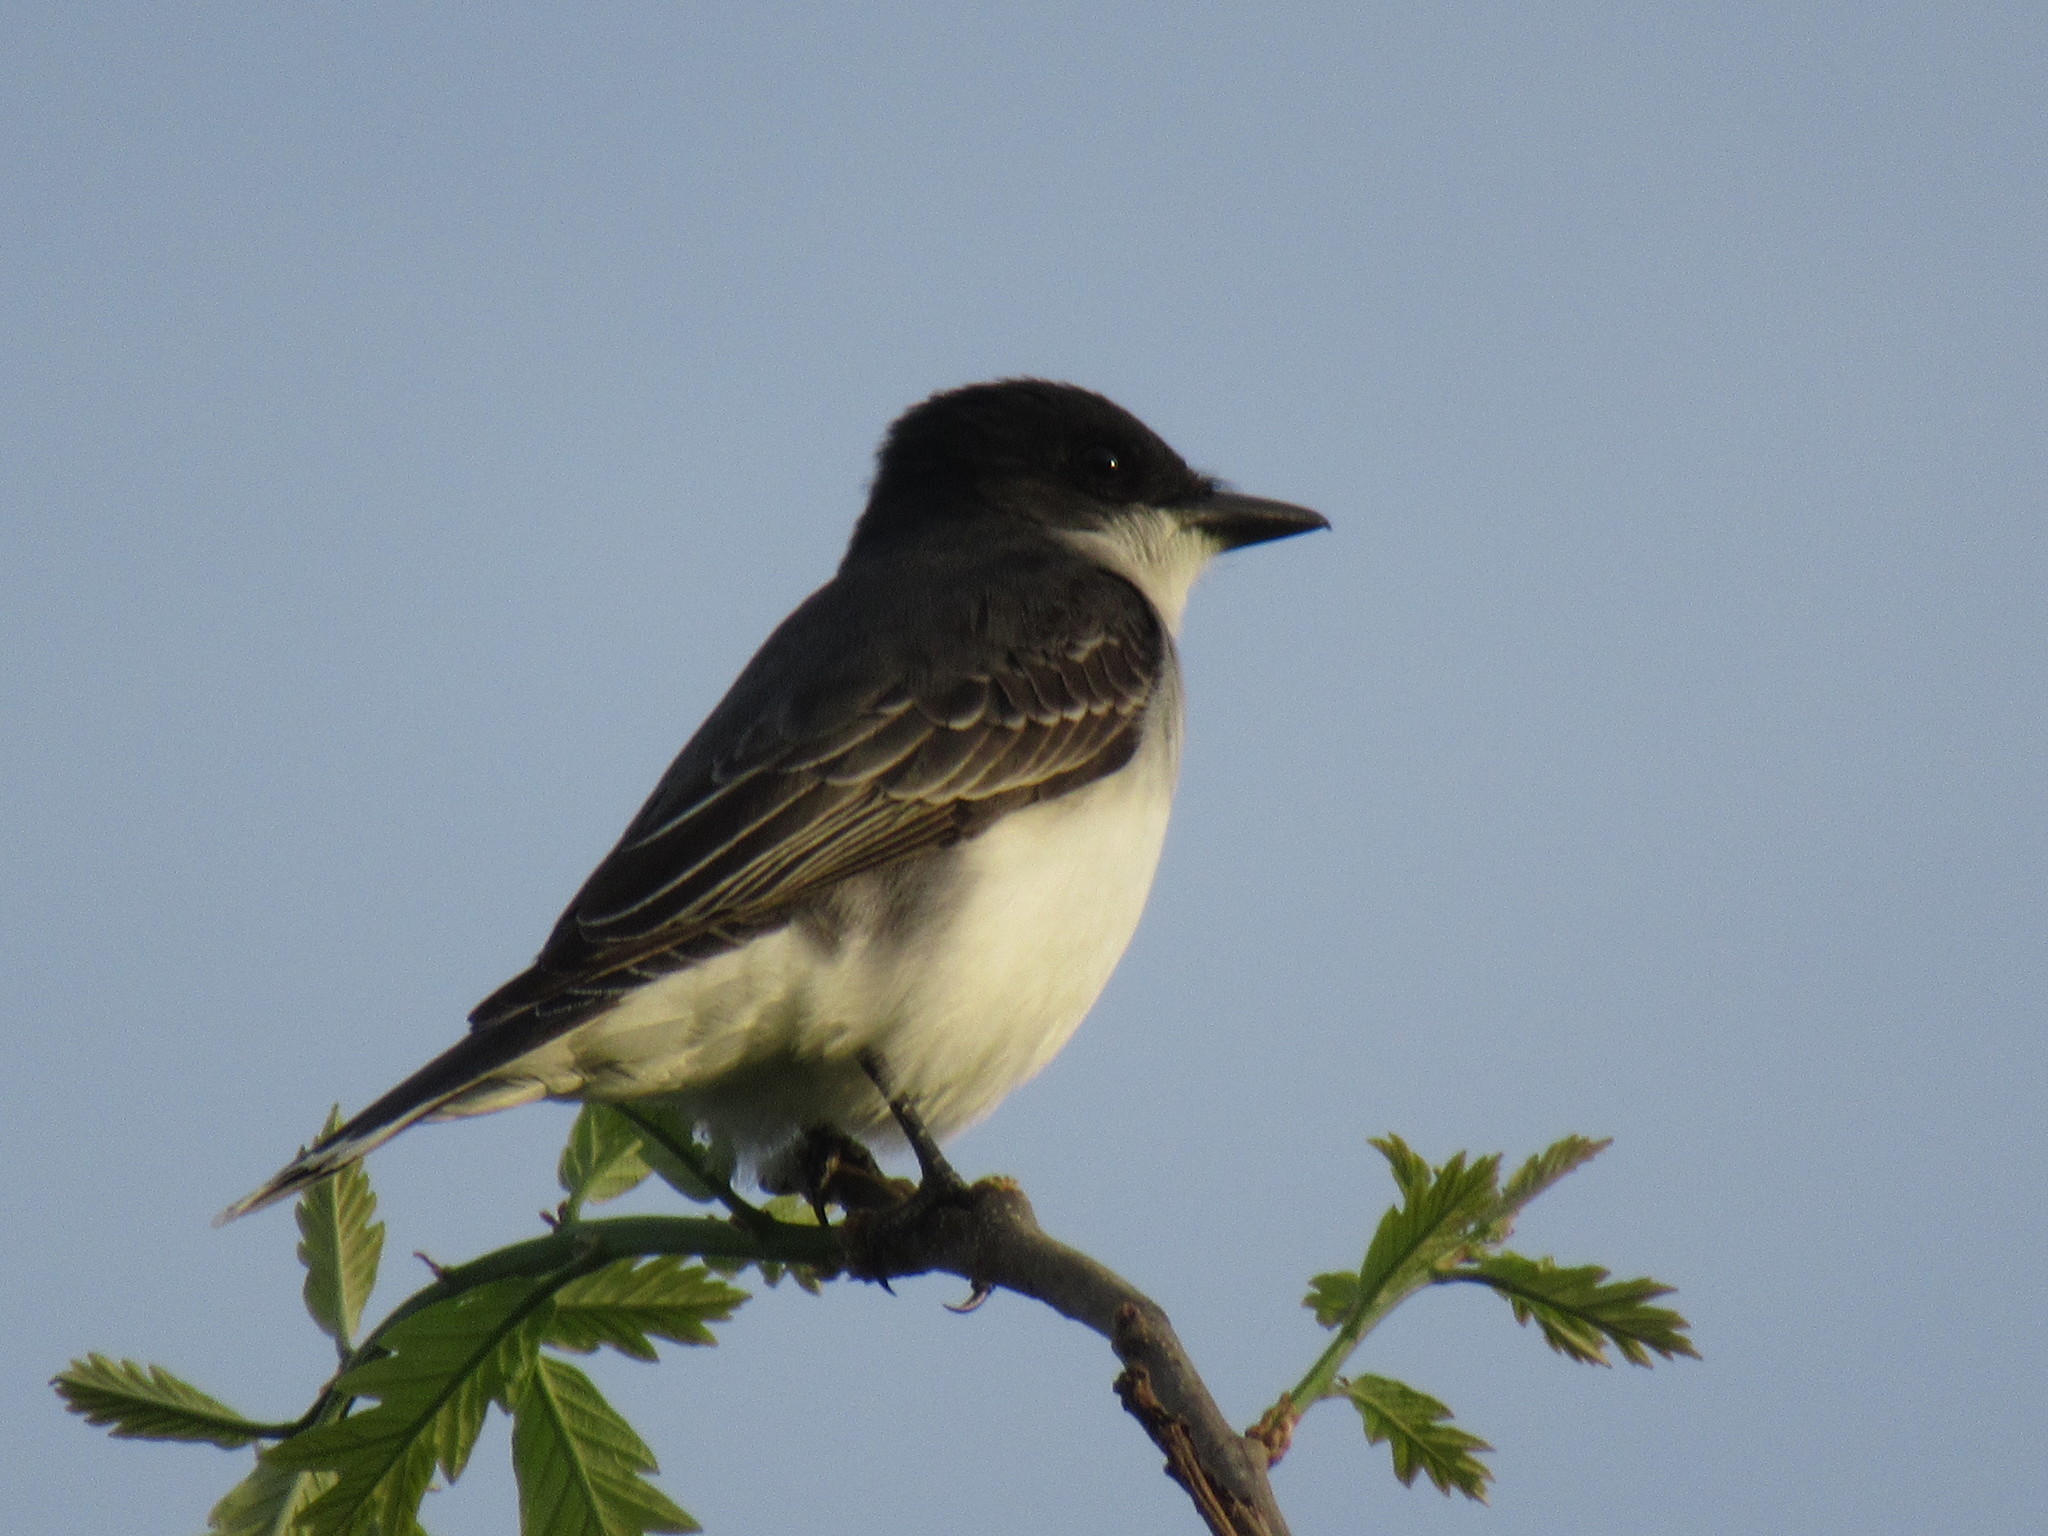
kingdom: Animalia
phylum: Chordata
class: Aves
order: Passeriformes
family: Tyrannidae
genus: Tyrannus
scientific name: Tyrannus tyrannus
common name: Eastern kingbird
